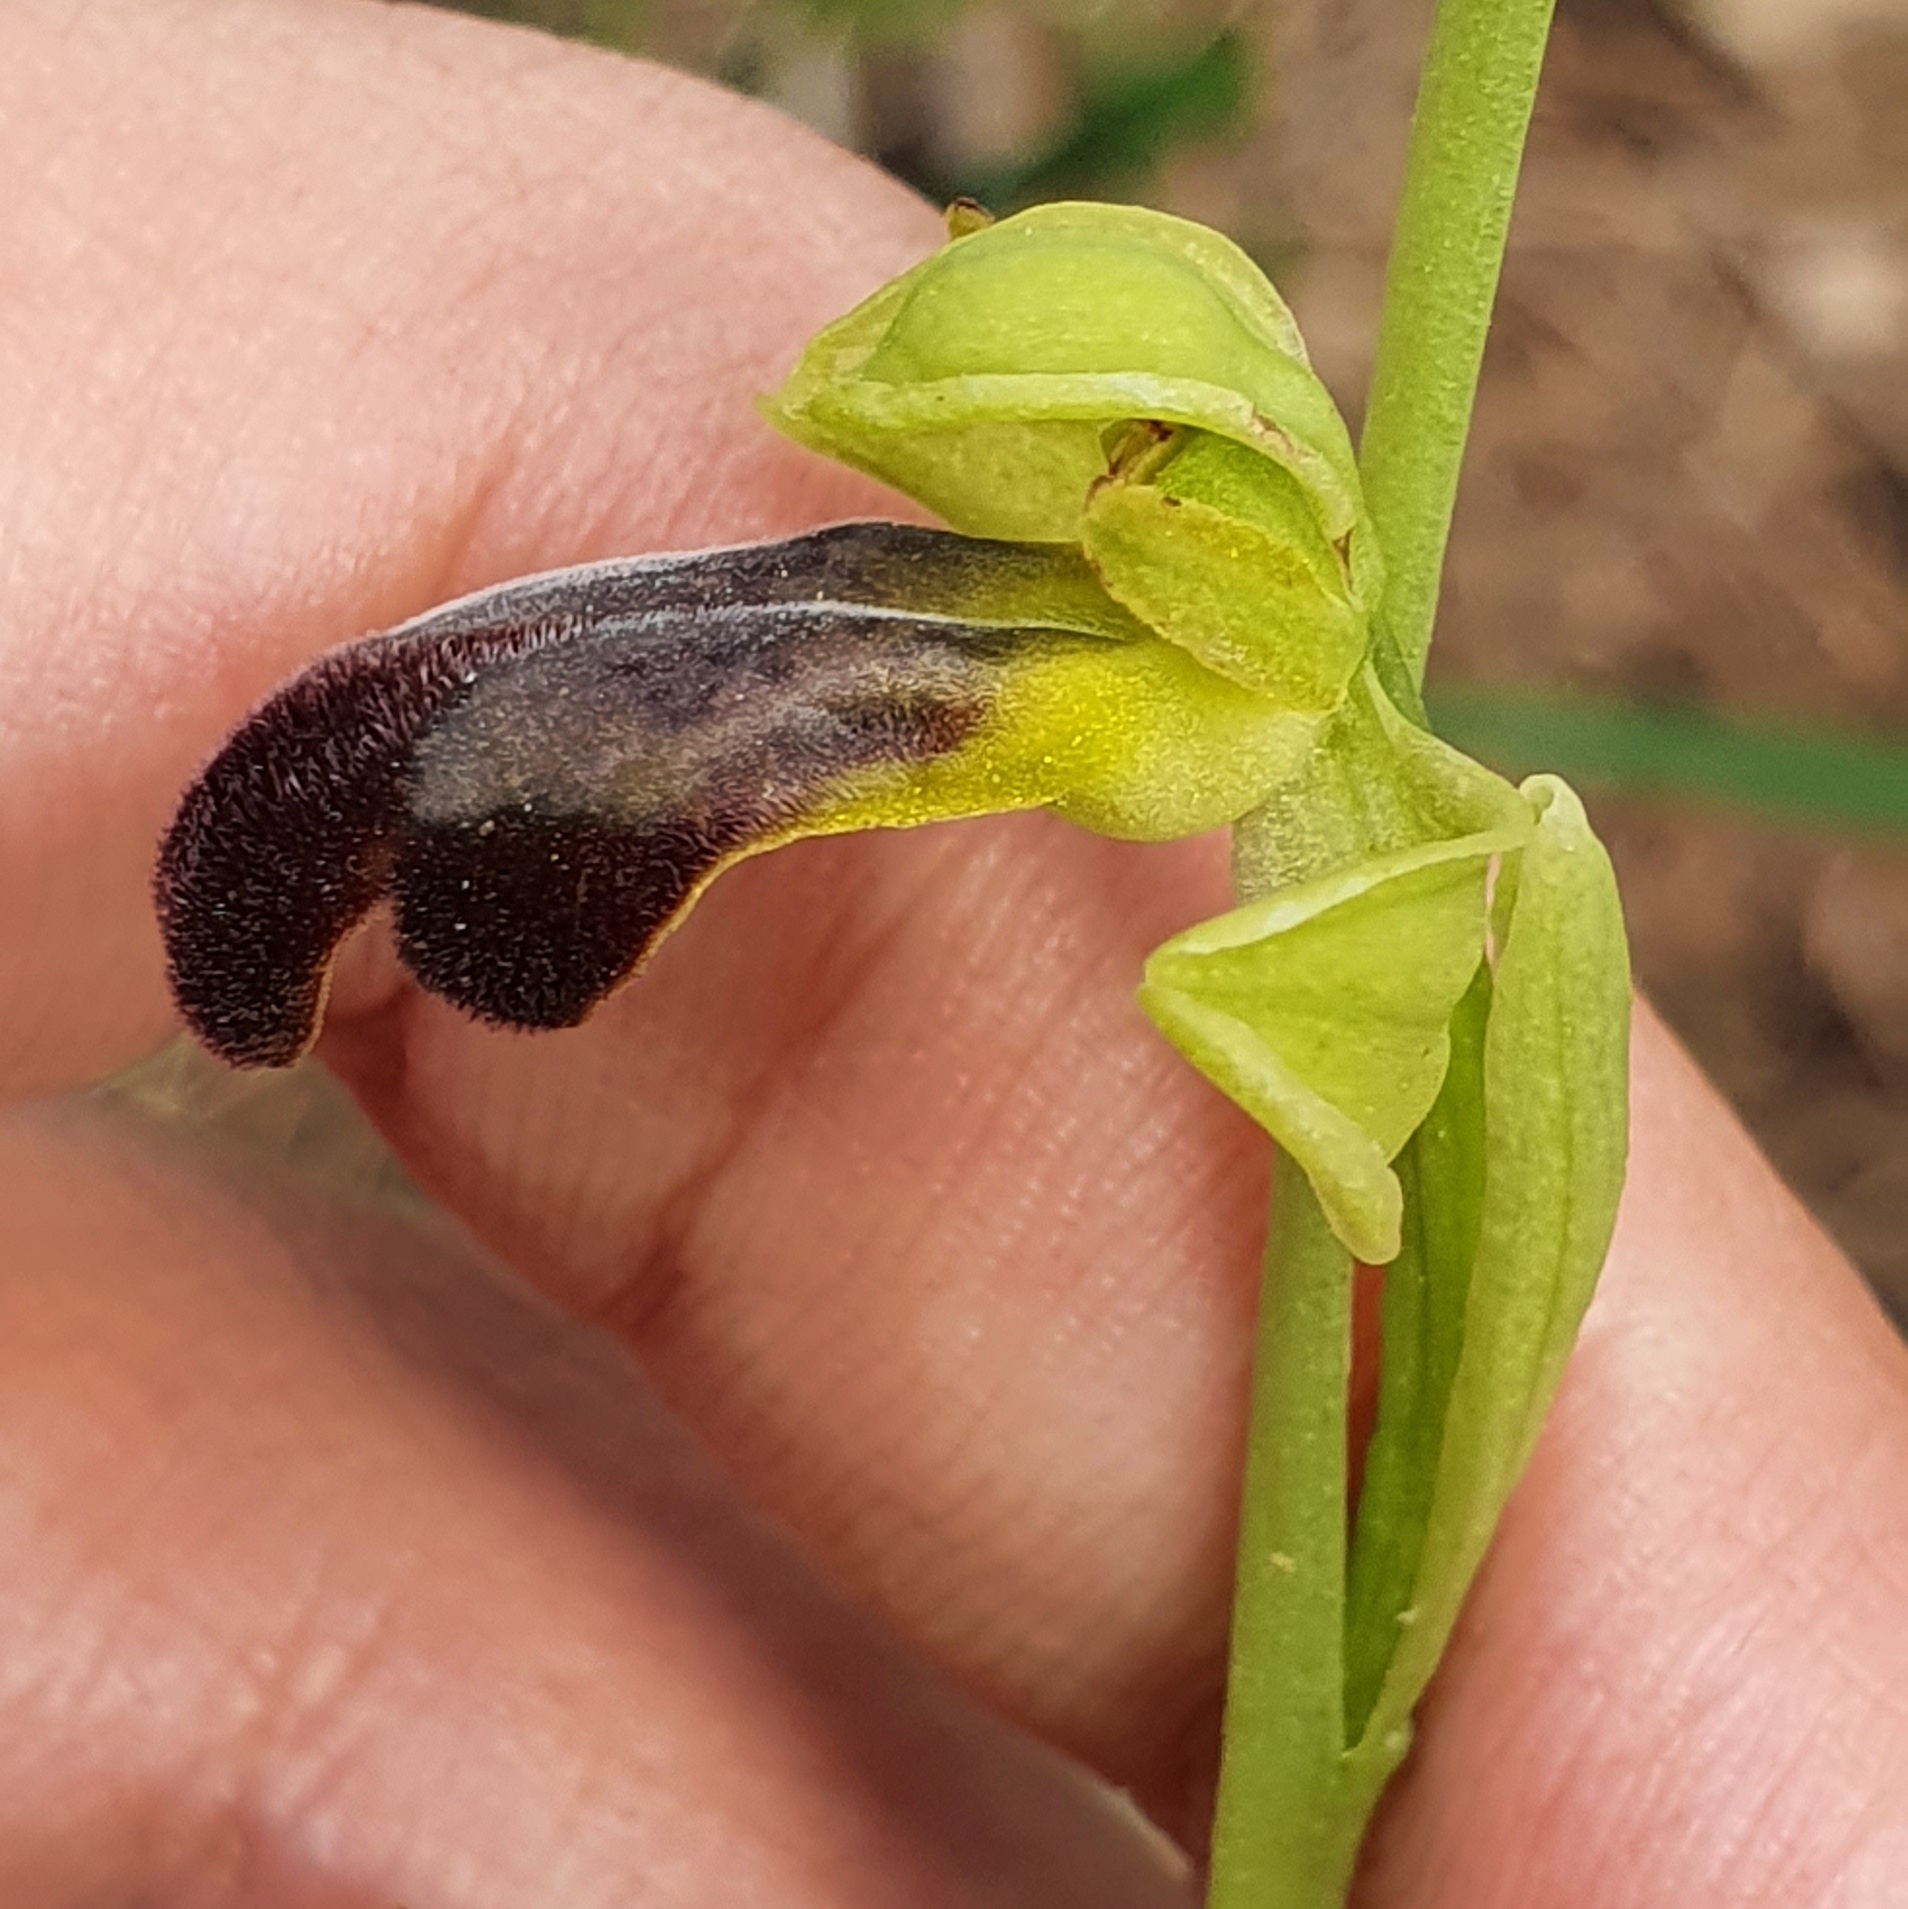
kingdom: Plantae
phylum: Tracheophyta
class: Liliopsida
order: Asparagales
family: Orchidaceae
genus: Ophrys
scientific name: Ophrys fusca
